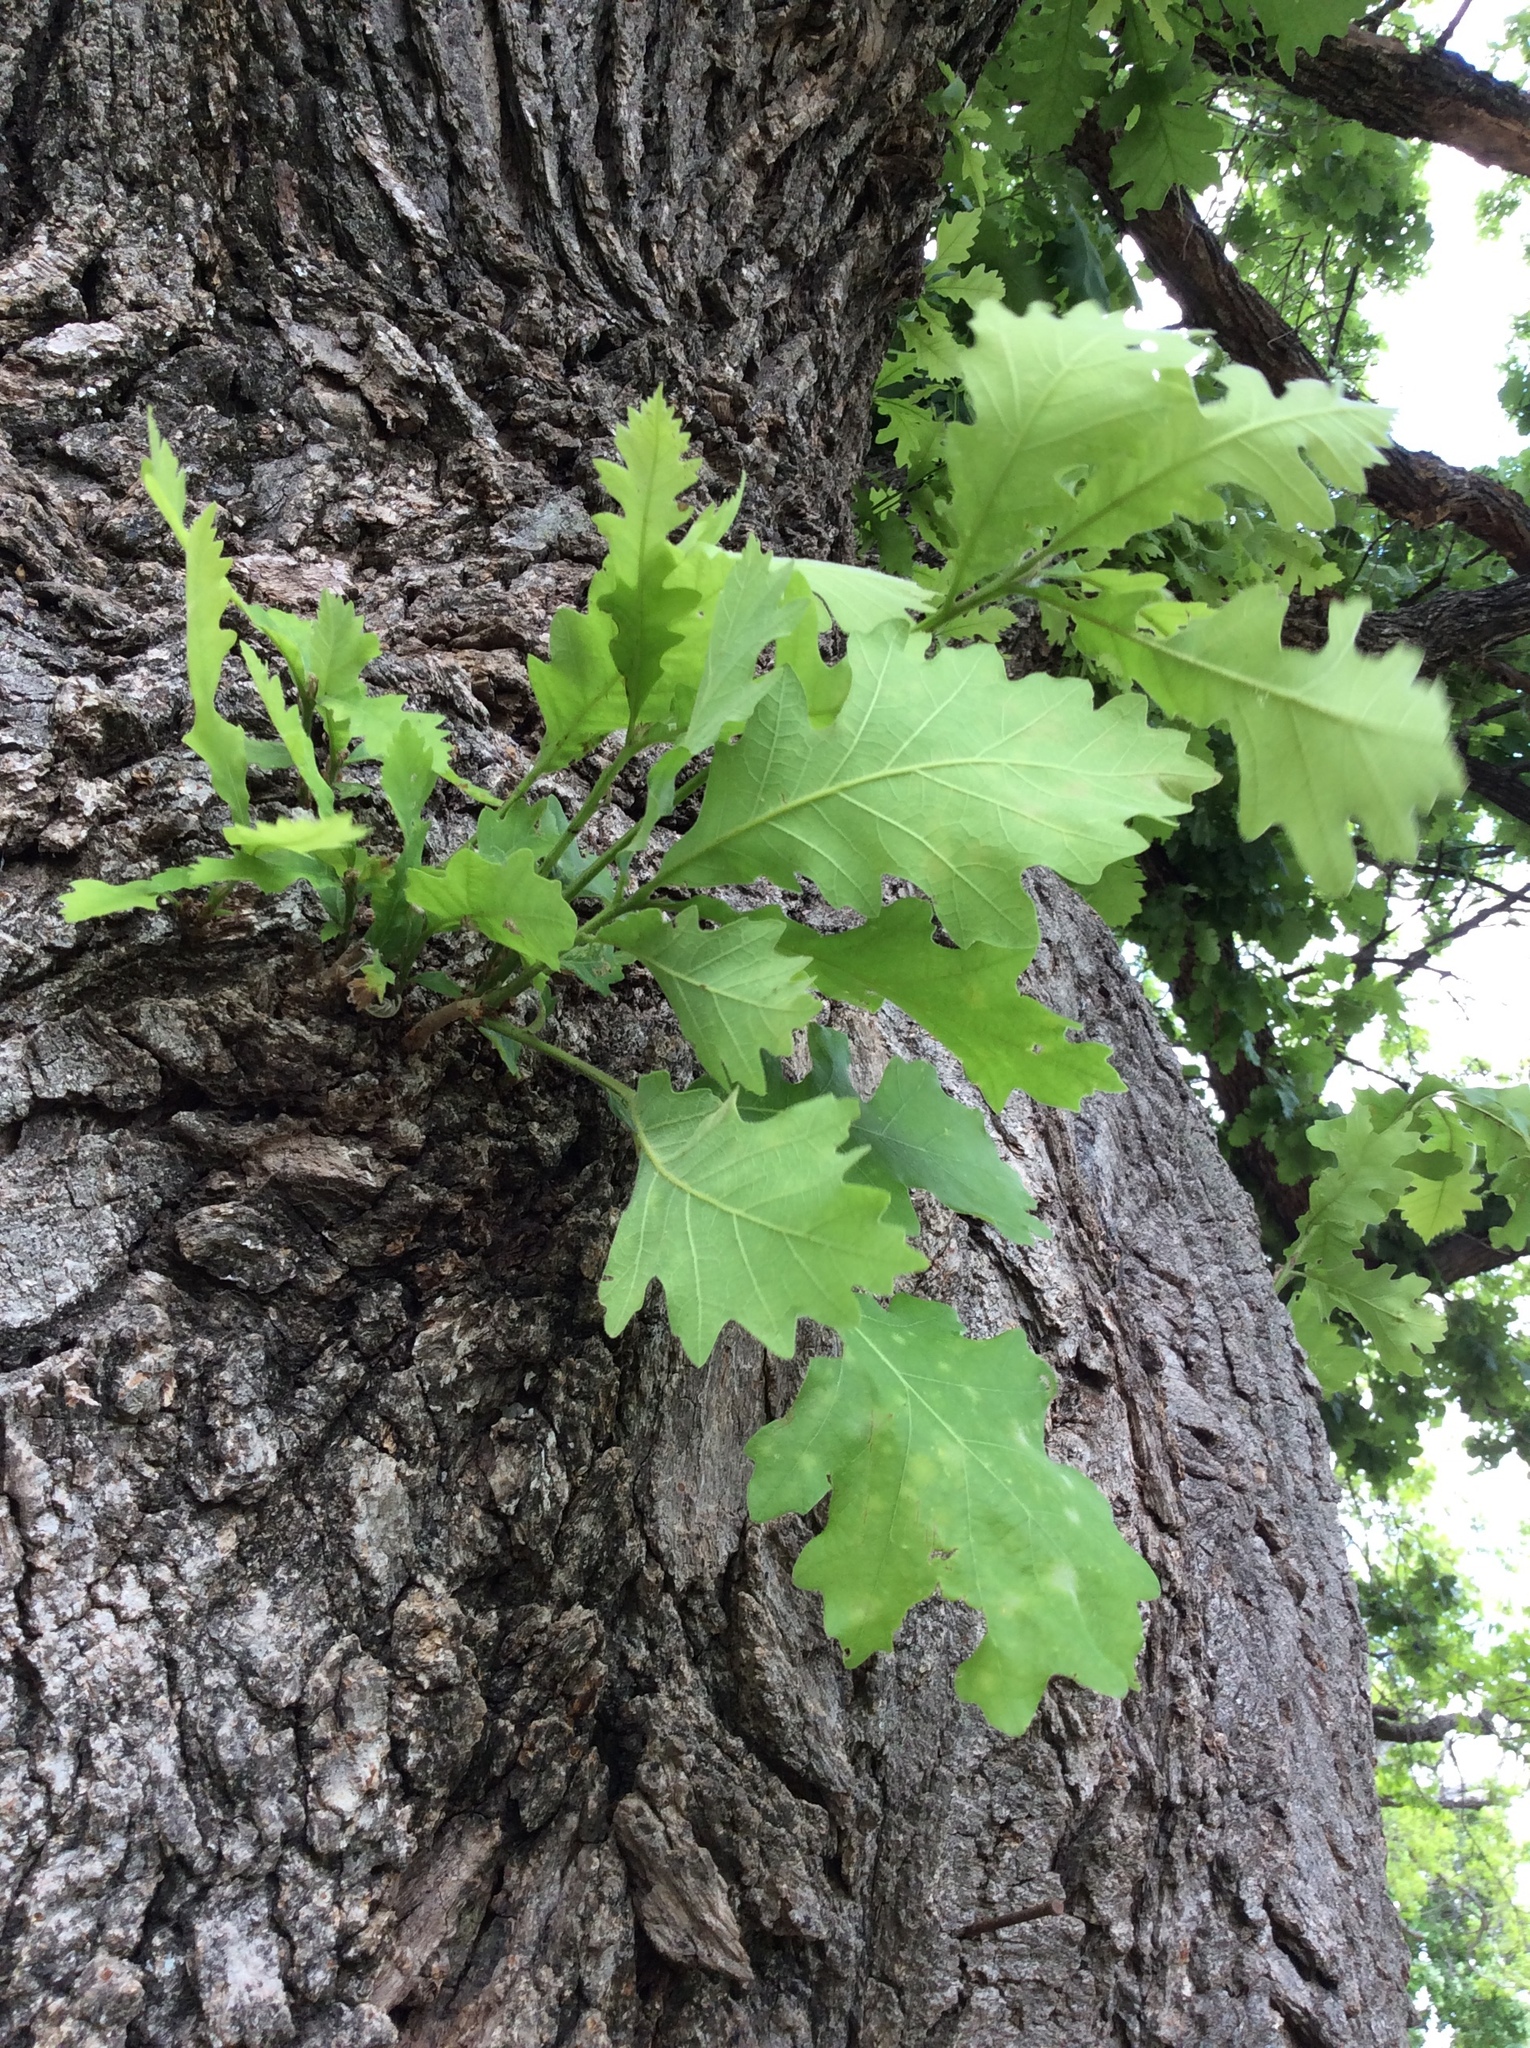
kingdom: Plantae
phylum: Tracheophyta
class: Magnoliopsida
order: Fagales
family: Fagaceae
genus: Quercus
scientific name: Quercus macrocarpa
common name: Bur oak
